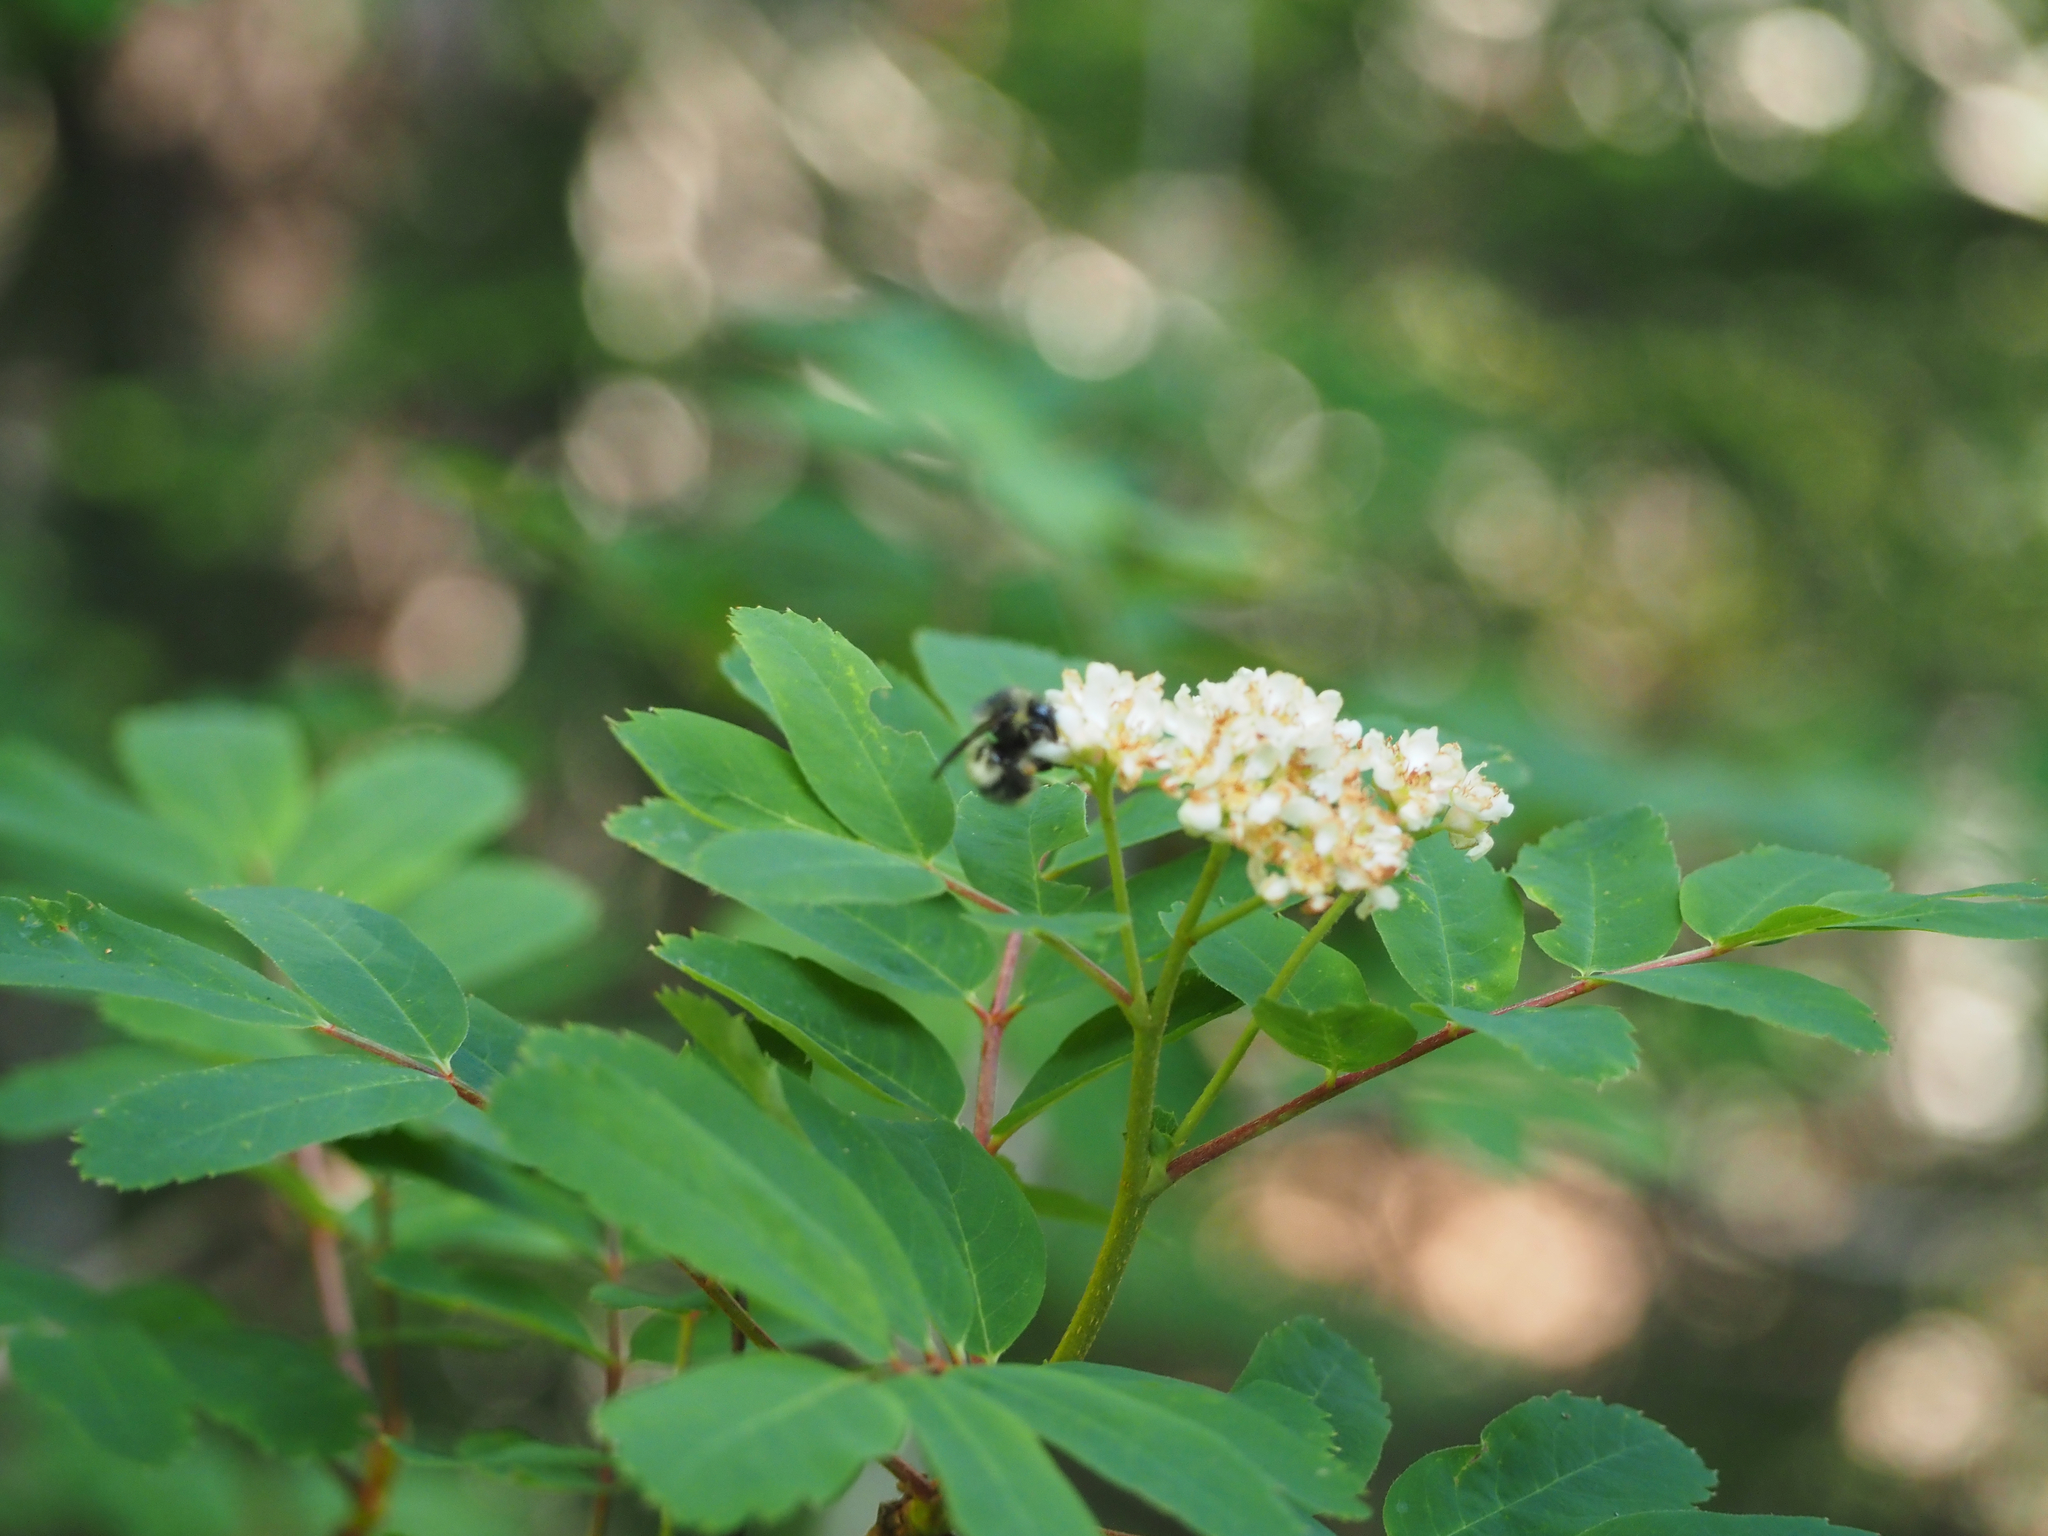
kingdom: Plantae
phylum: Tracheophyta
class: Magnoliopsida
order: Rosales
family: Rosaceae
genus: Sorbus
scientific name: Sorbus sitchensis
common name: Sitka mountain-ash
